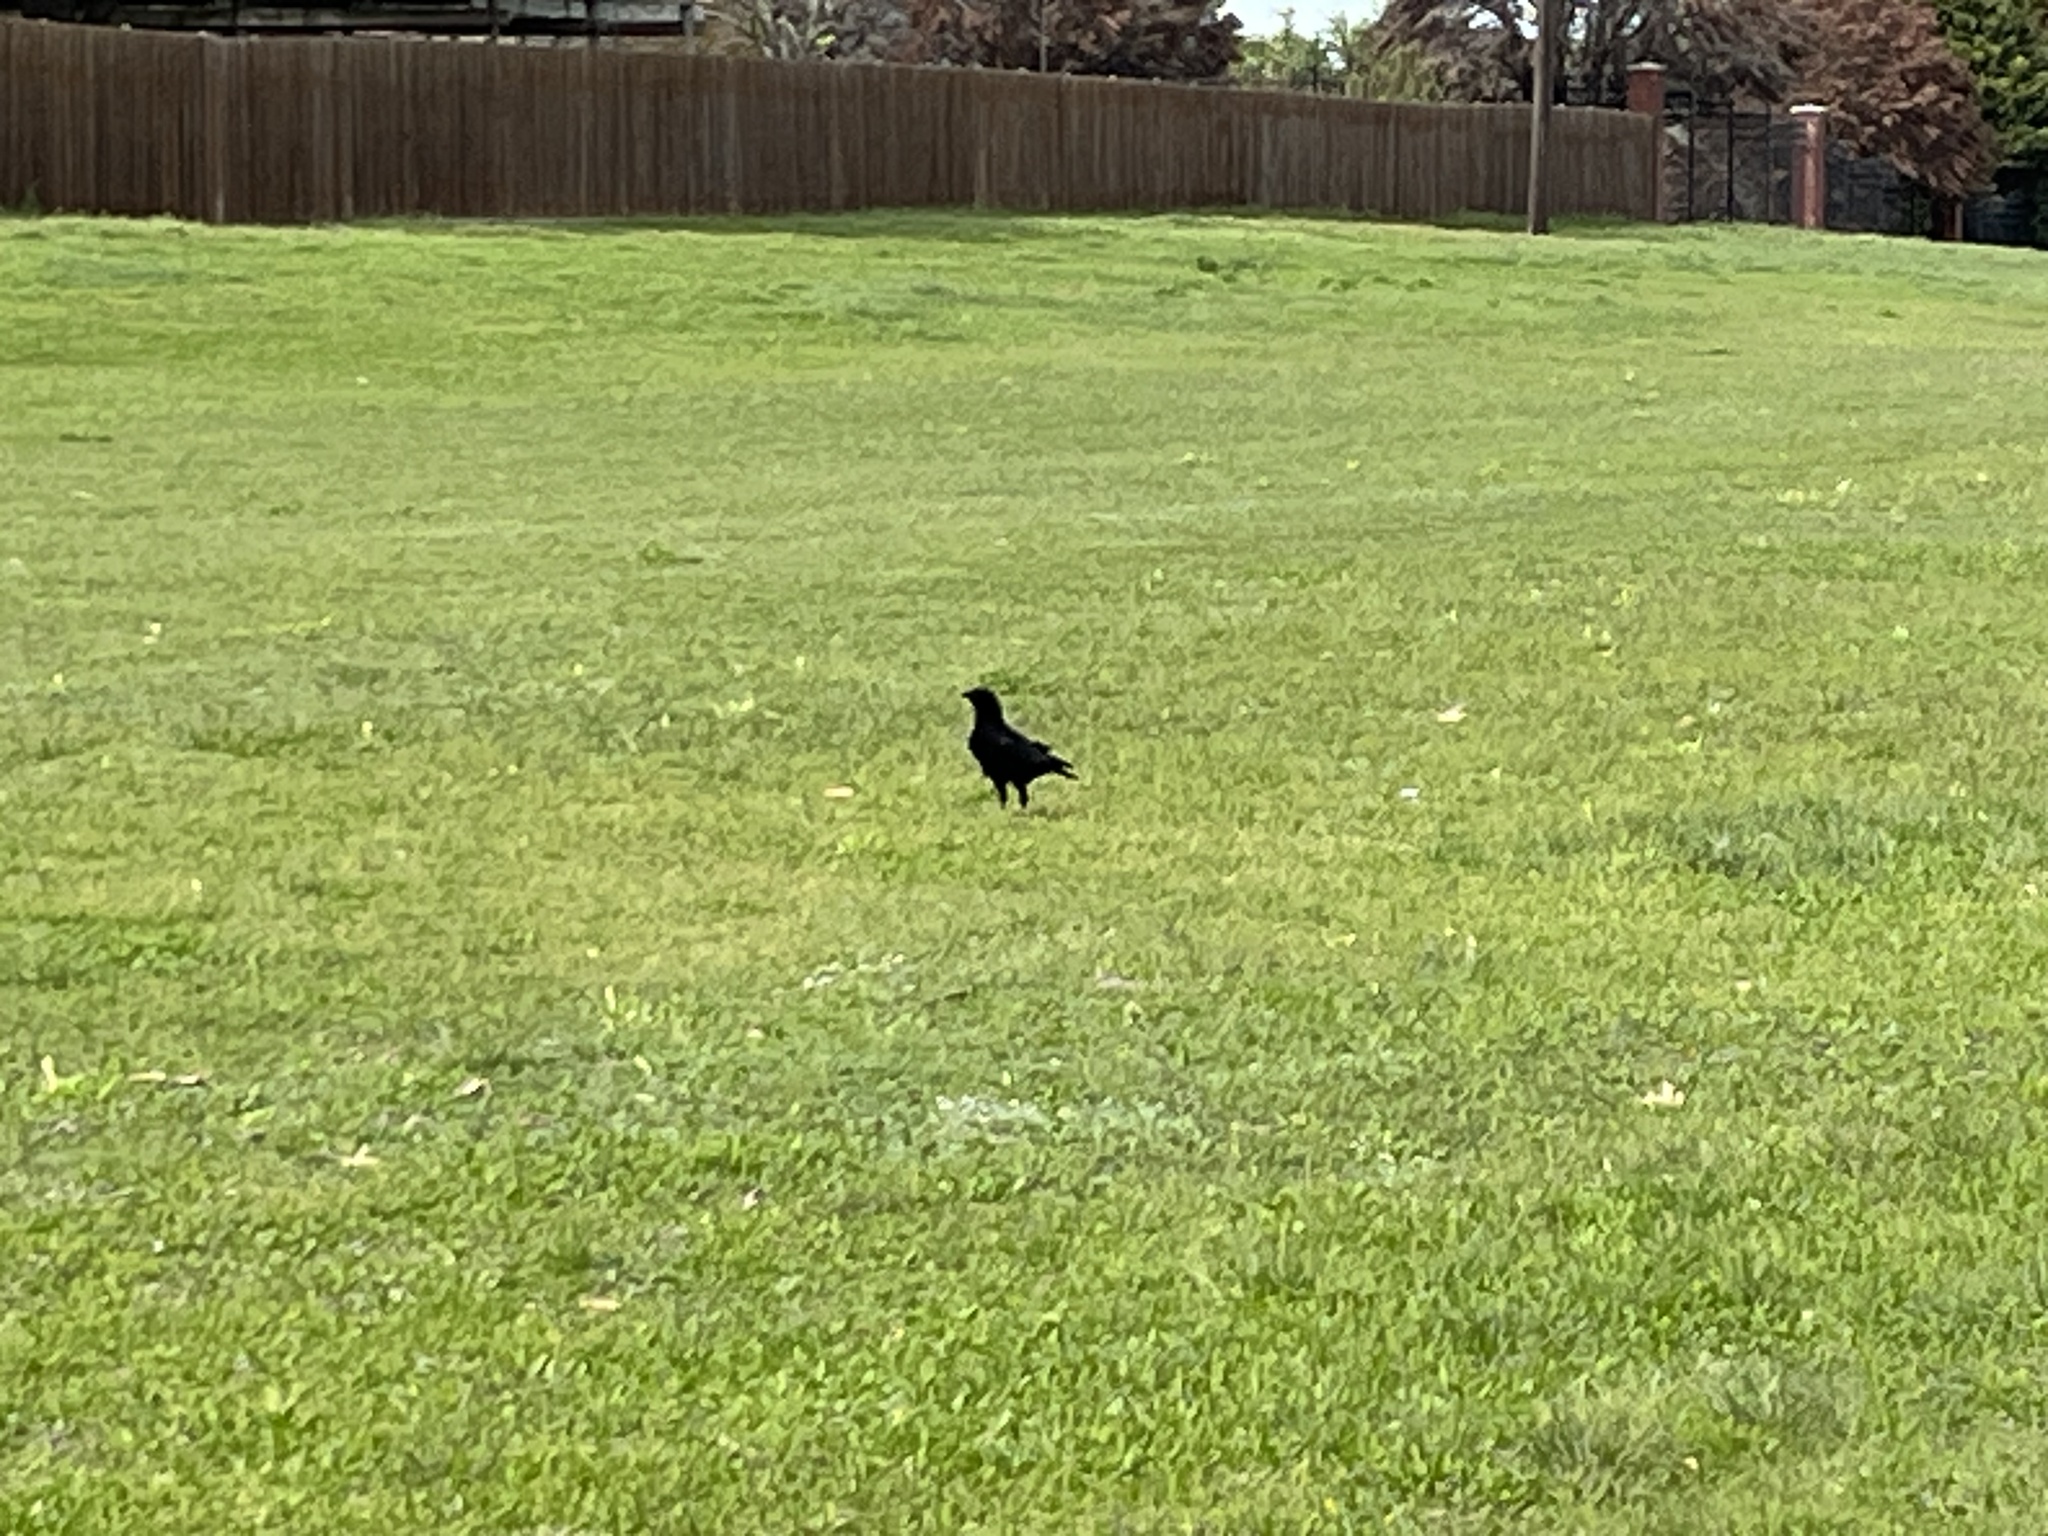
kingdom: Animalia
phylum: Chordata
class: Aves
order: Passeriformes
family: Corvidae
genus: Corvus
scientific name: Corvus brachyrhynchos
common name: American crow
